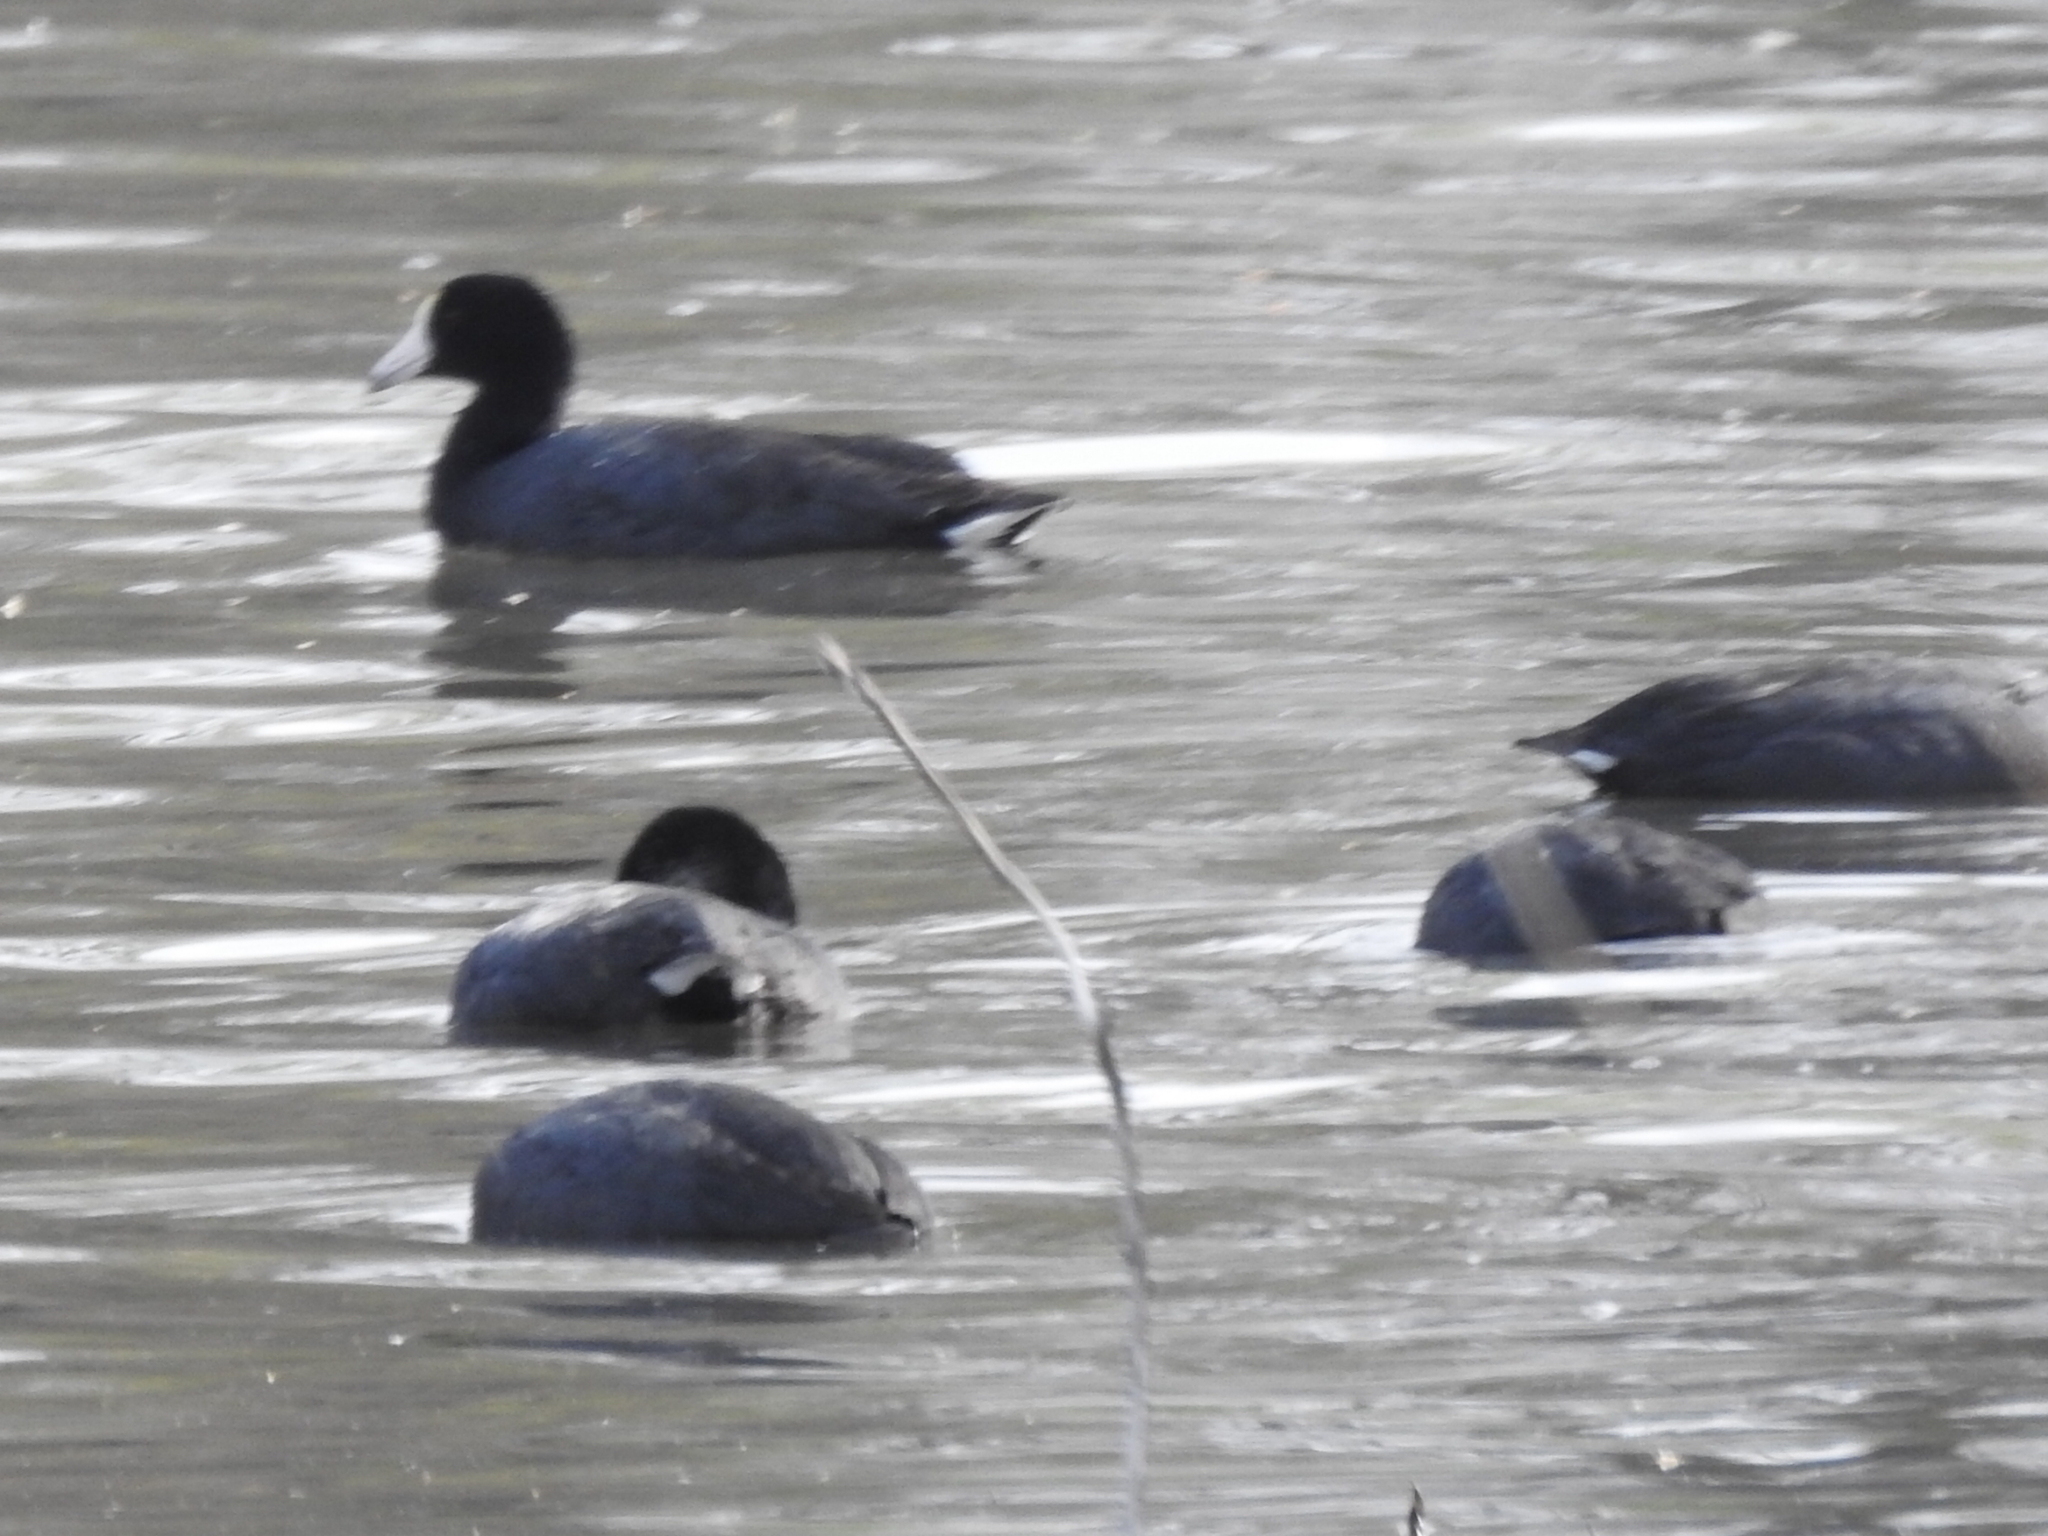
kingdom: Animalia
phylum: Chordata
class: Aves
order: Gruiformes
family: Rallidae
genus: Fulica
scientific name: Fulica americana
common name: American coot
